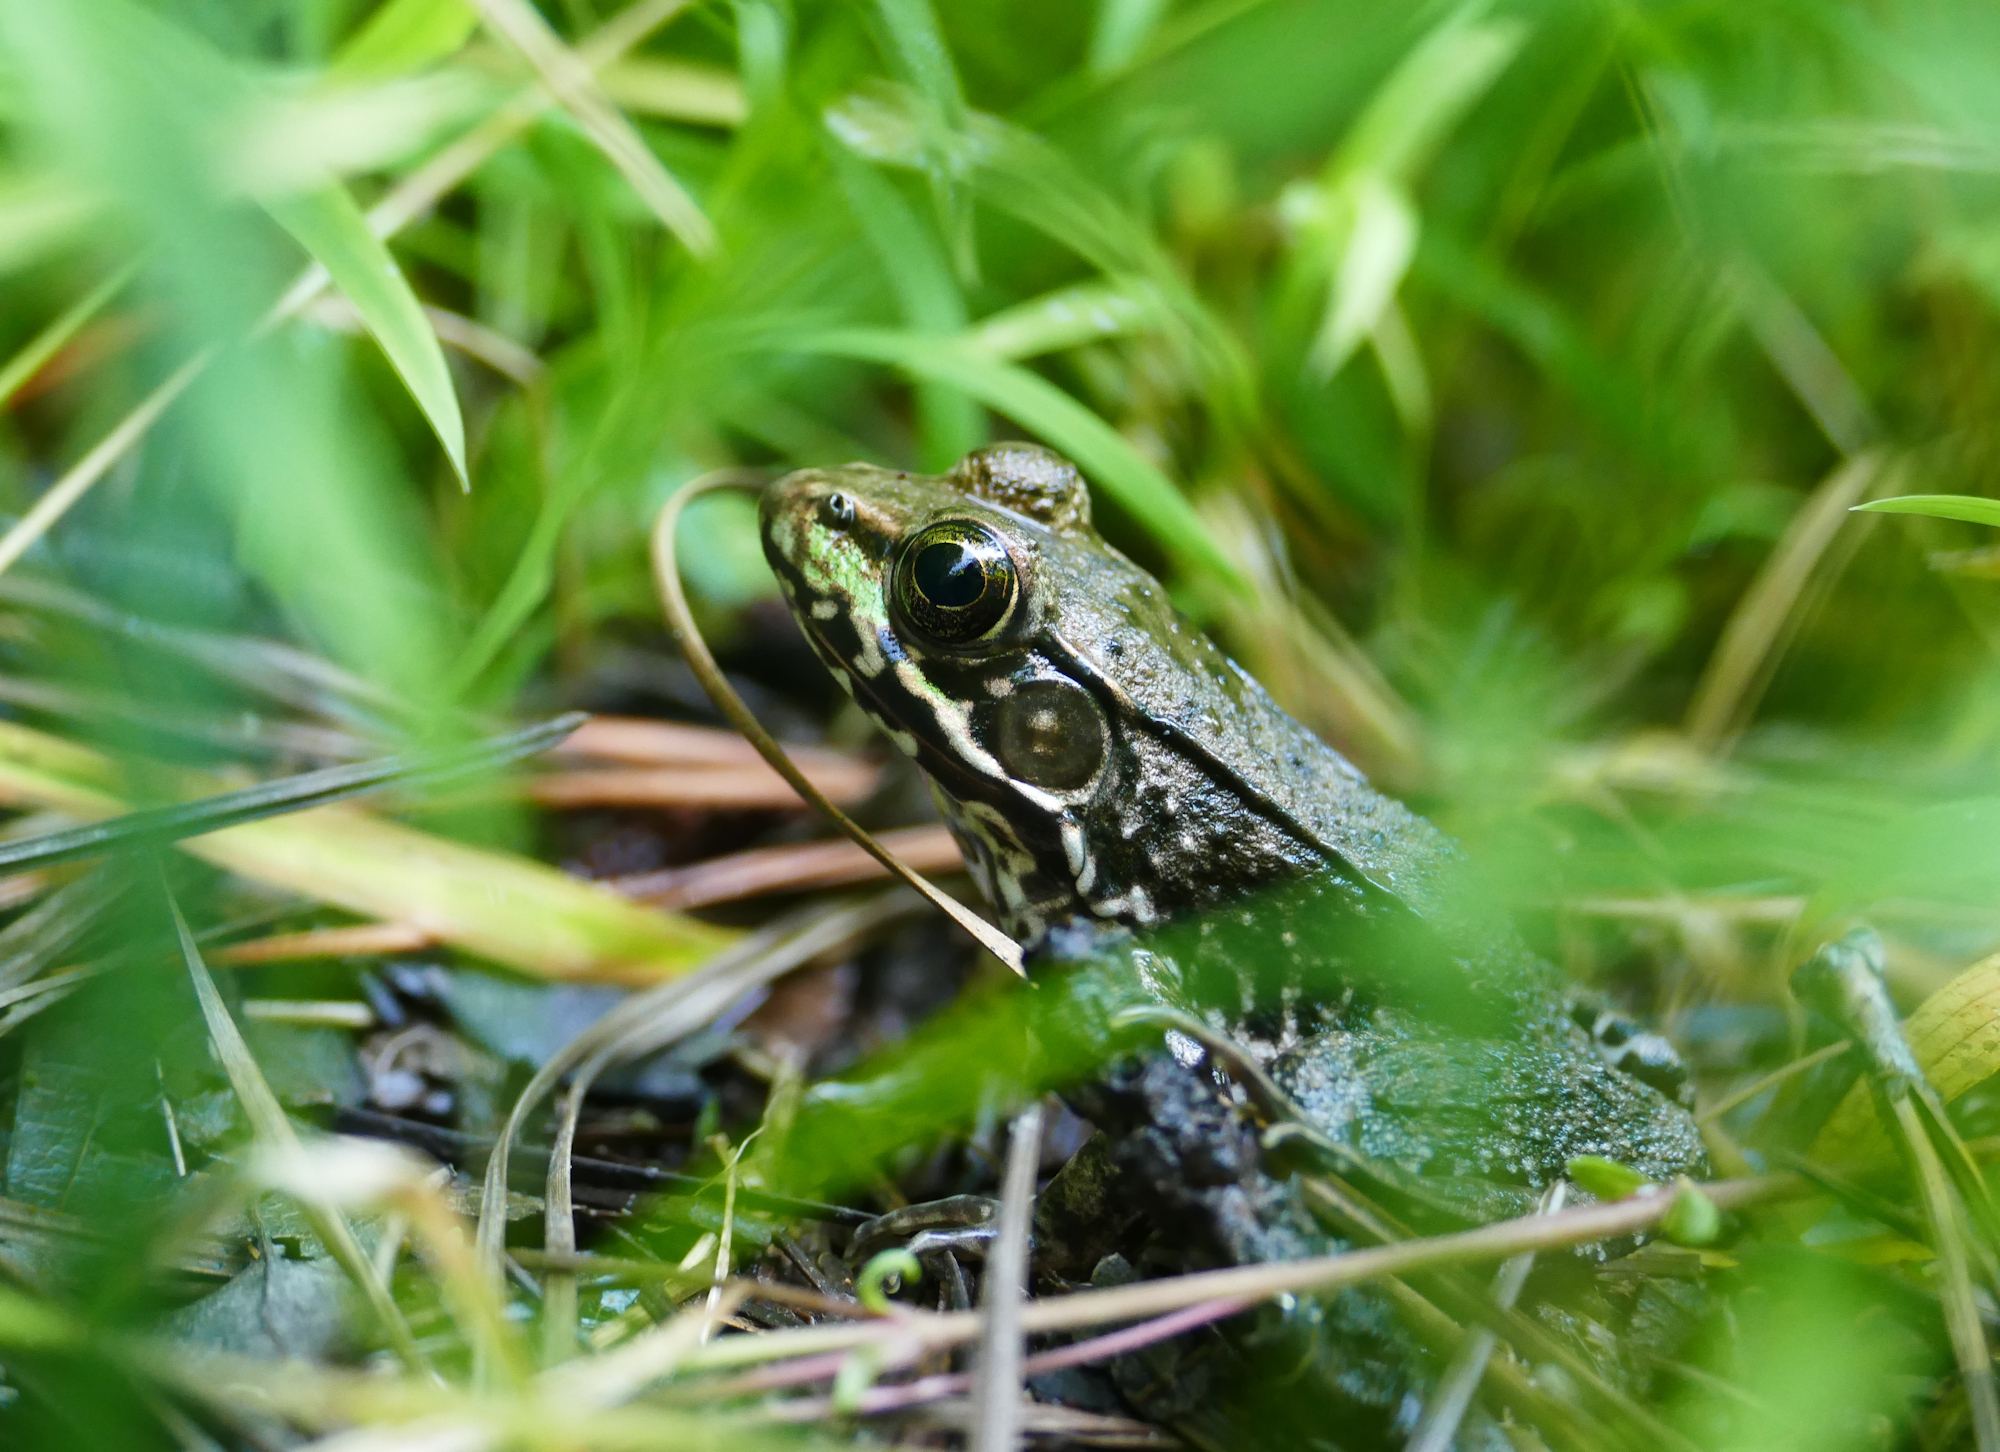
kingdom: Animalia
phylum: Chordata
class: Amphibia
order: Anura
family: Ranidae
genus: Lithobates
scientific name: Lithobates clamitans
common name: Green frog
